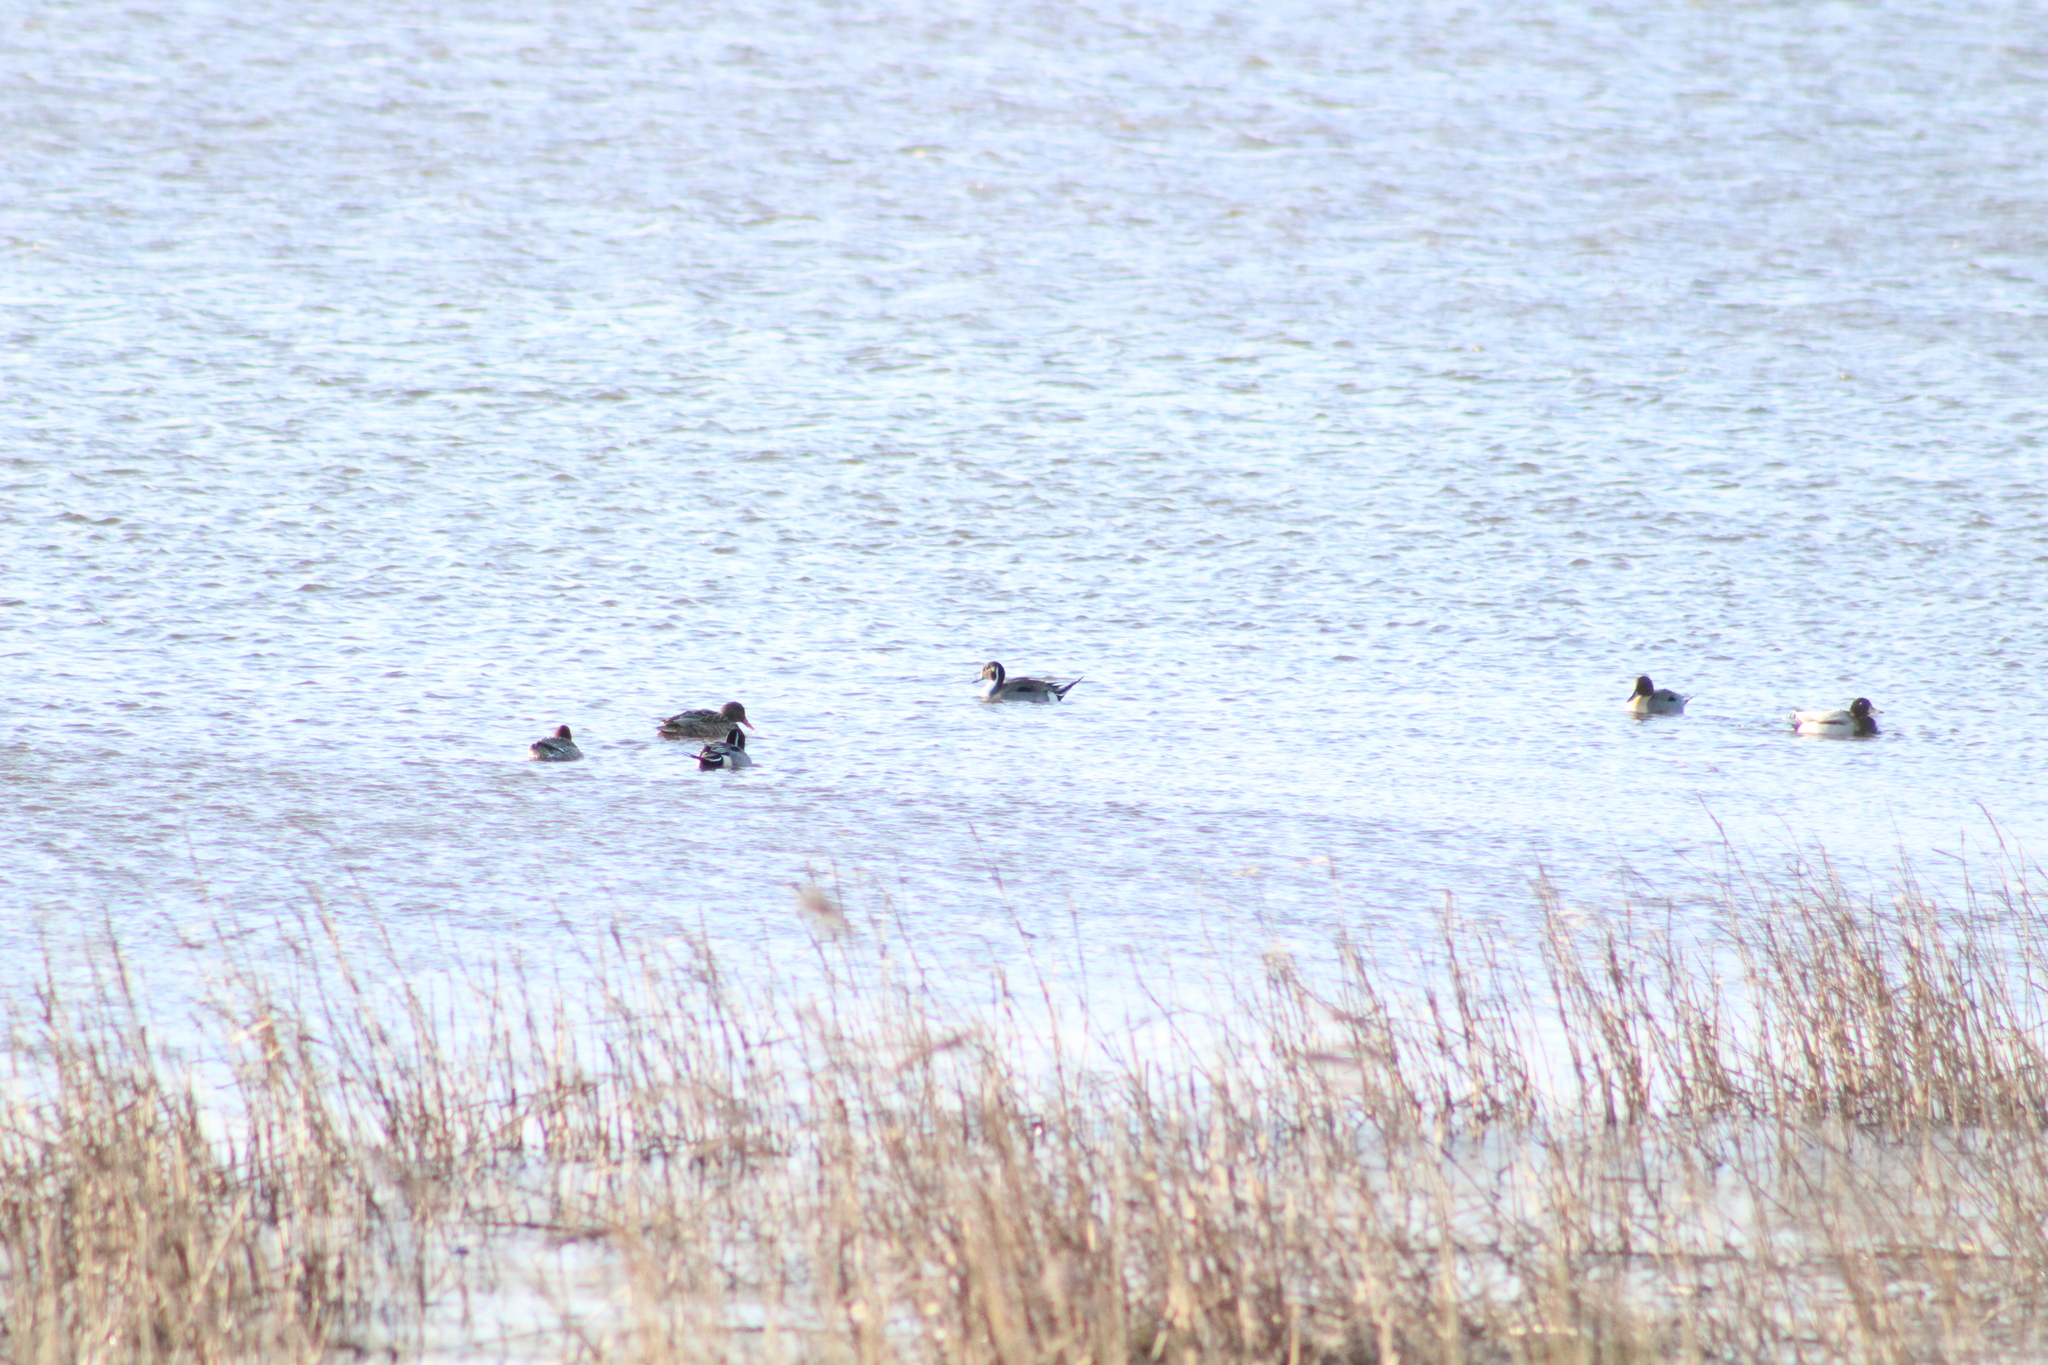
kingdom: Animalia
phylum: Chordata
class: Aves
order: Anseriformes
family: Anatidae
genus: Anas
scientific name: Anas acuta
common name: Northern pintail
